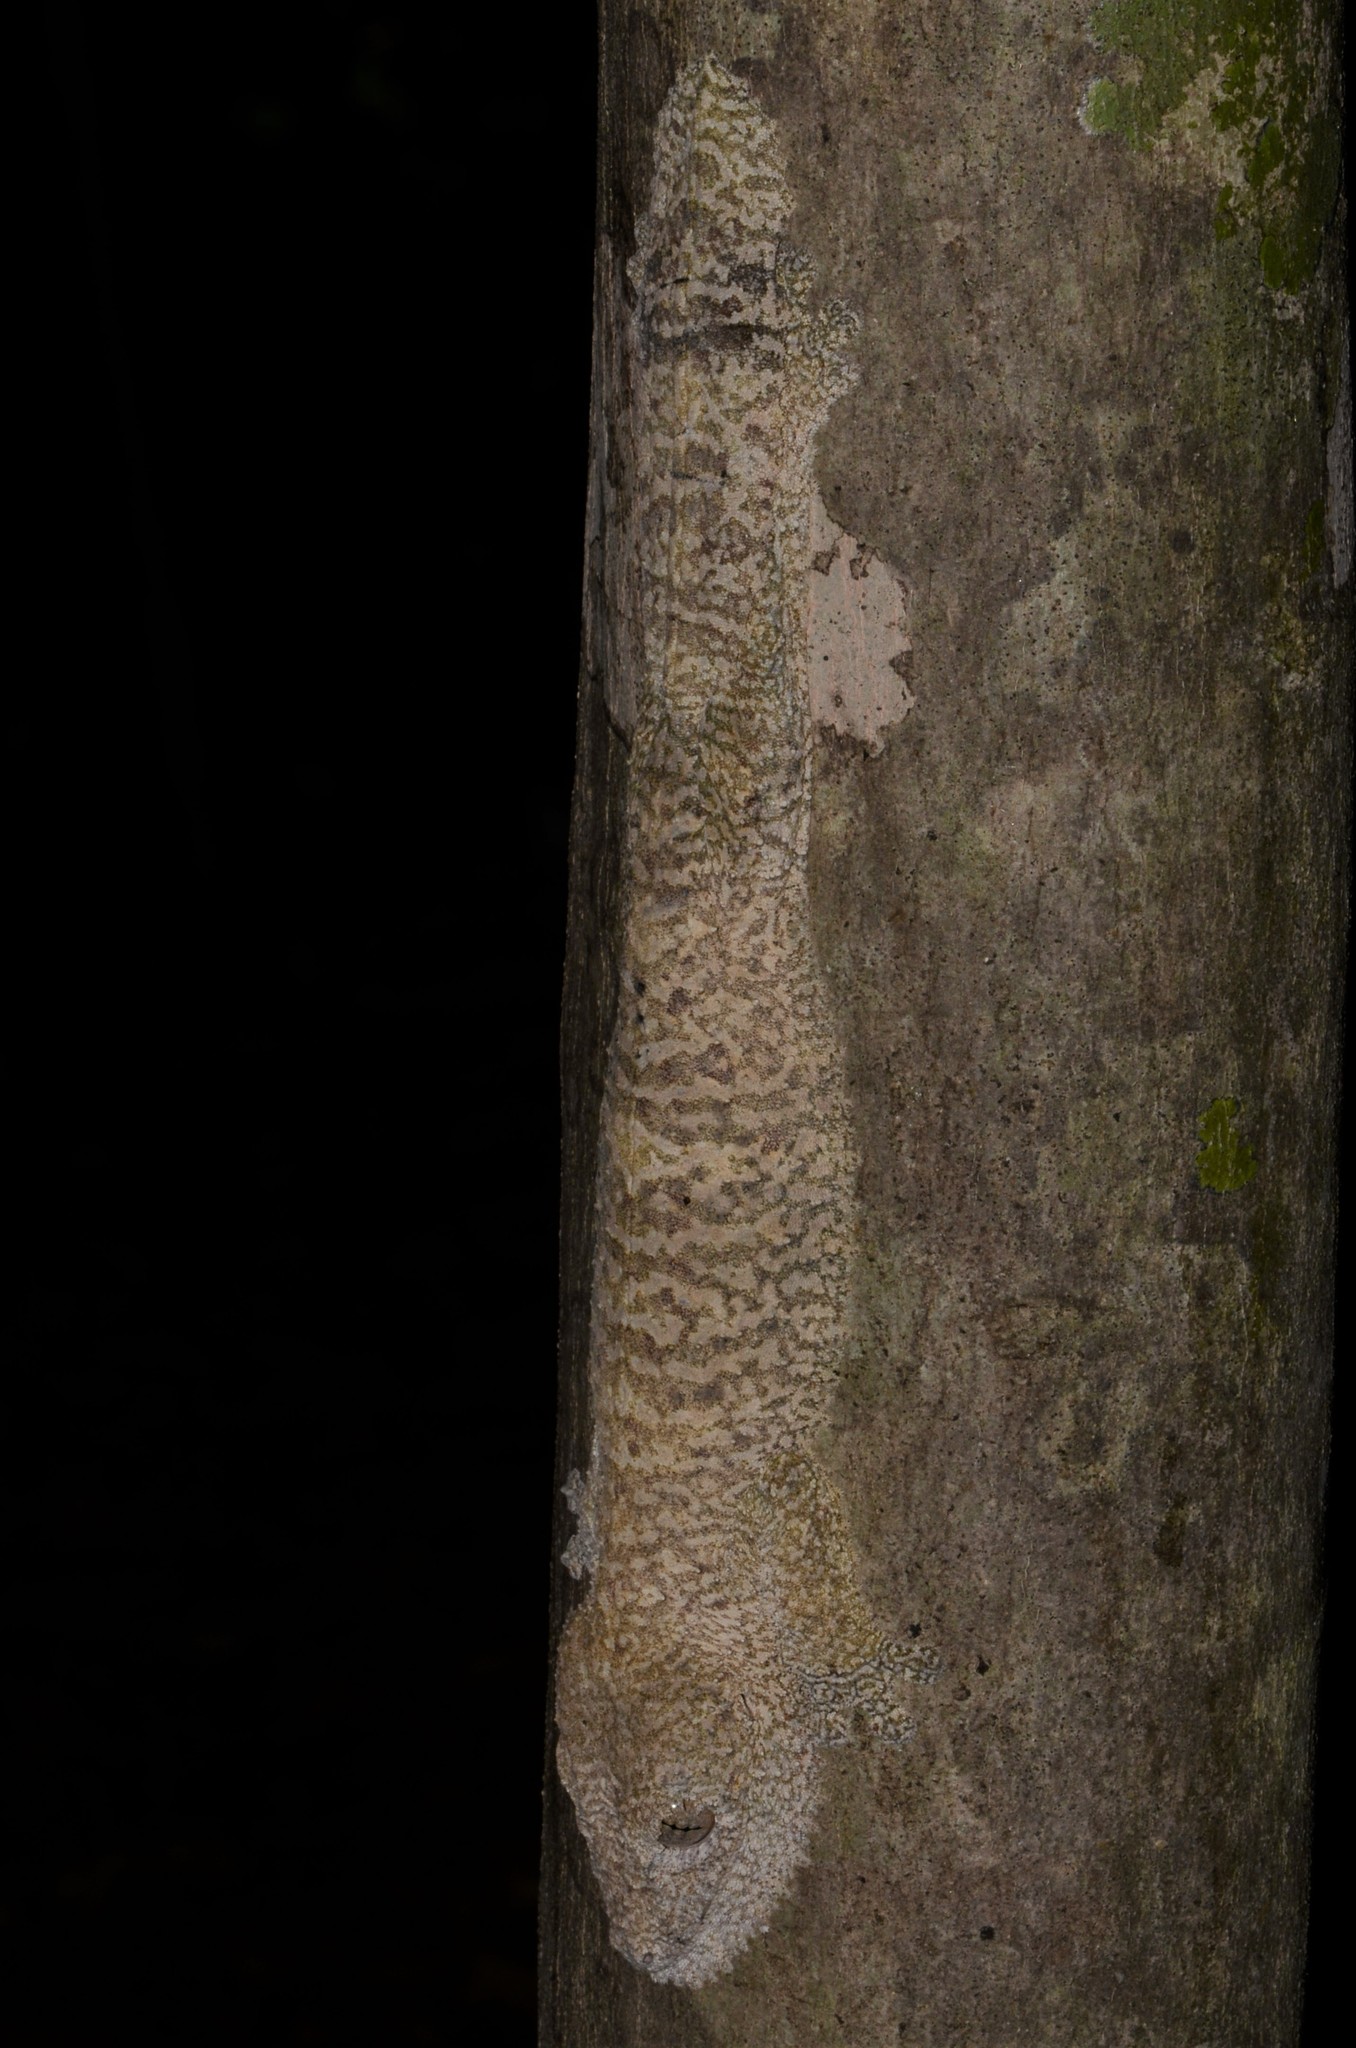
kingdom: Animalia
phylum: Chordata
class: Squamata
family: Gekkonidae
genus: Uroplatus
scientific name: Uroplatus
